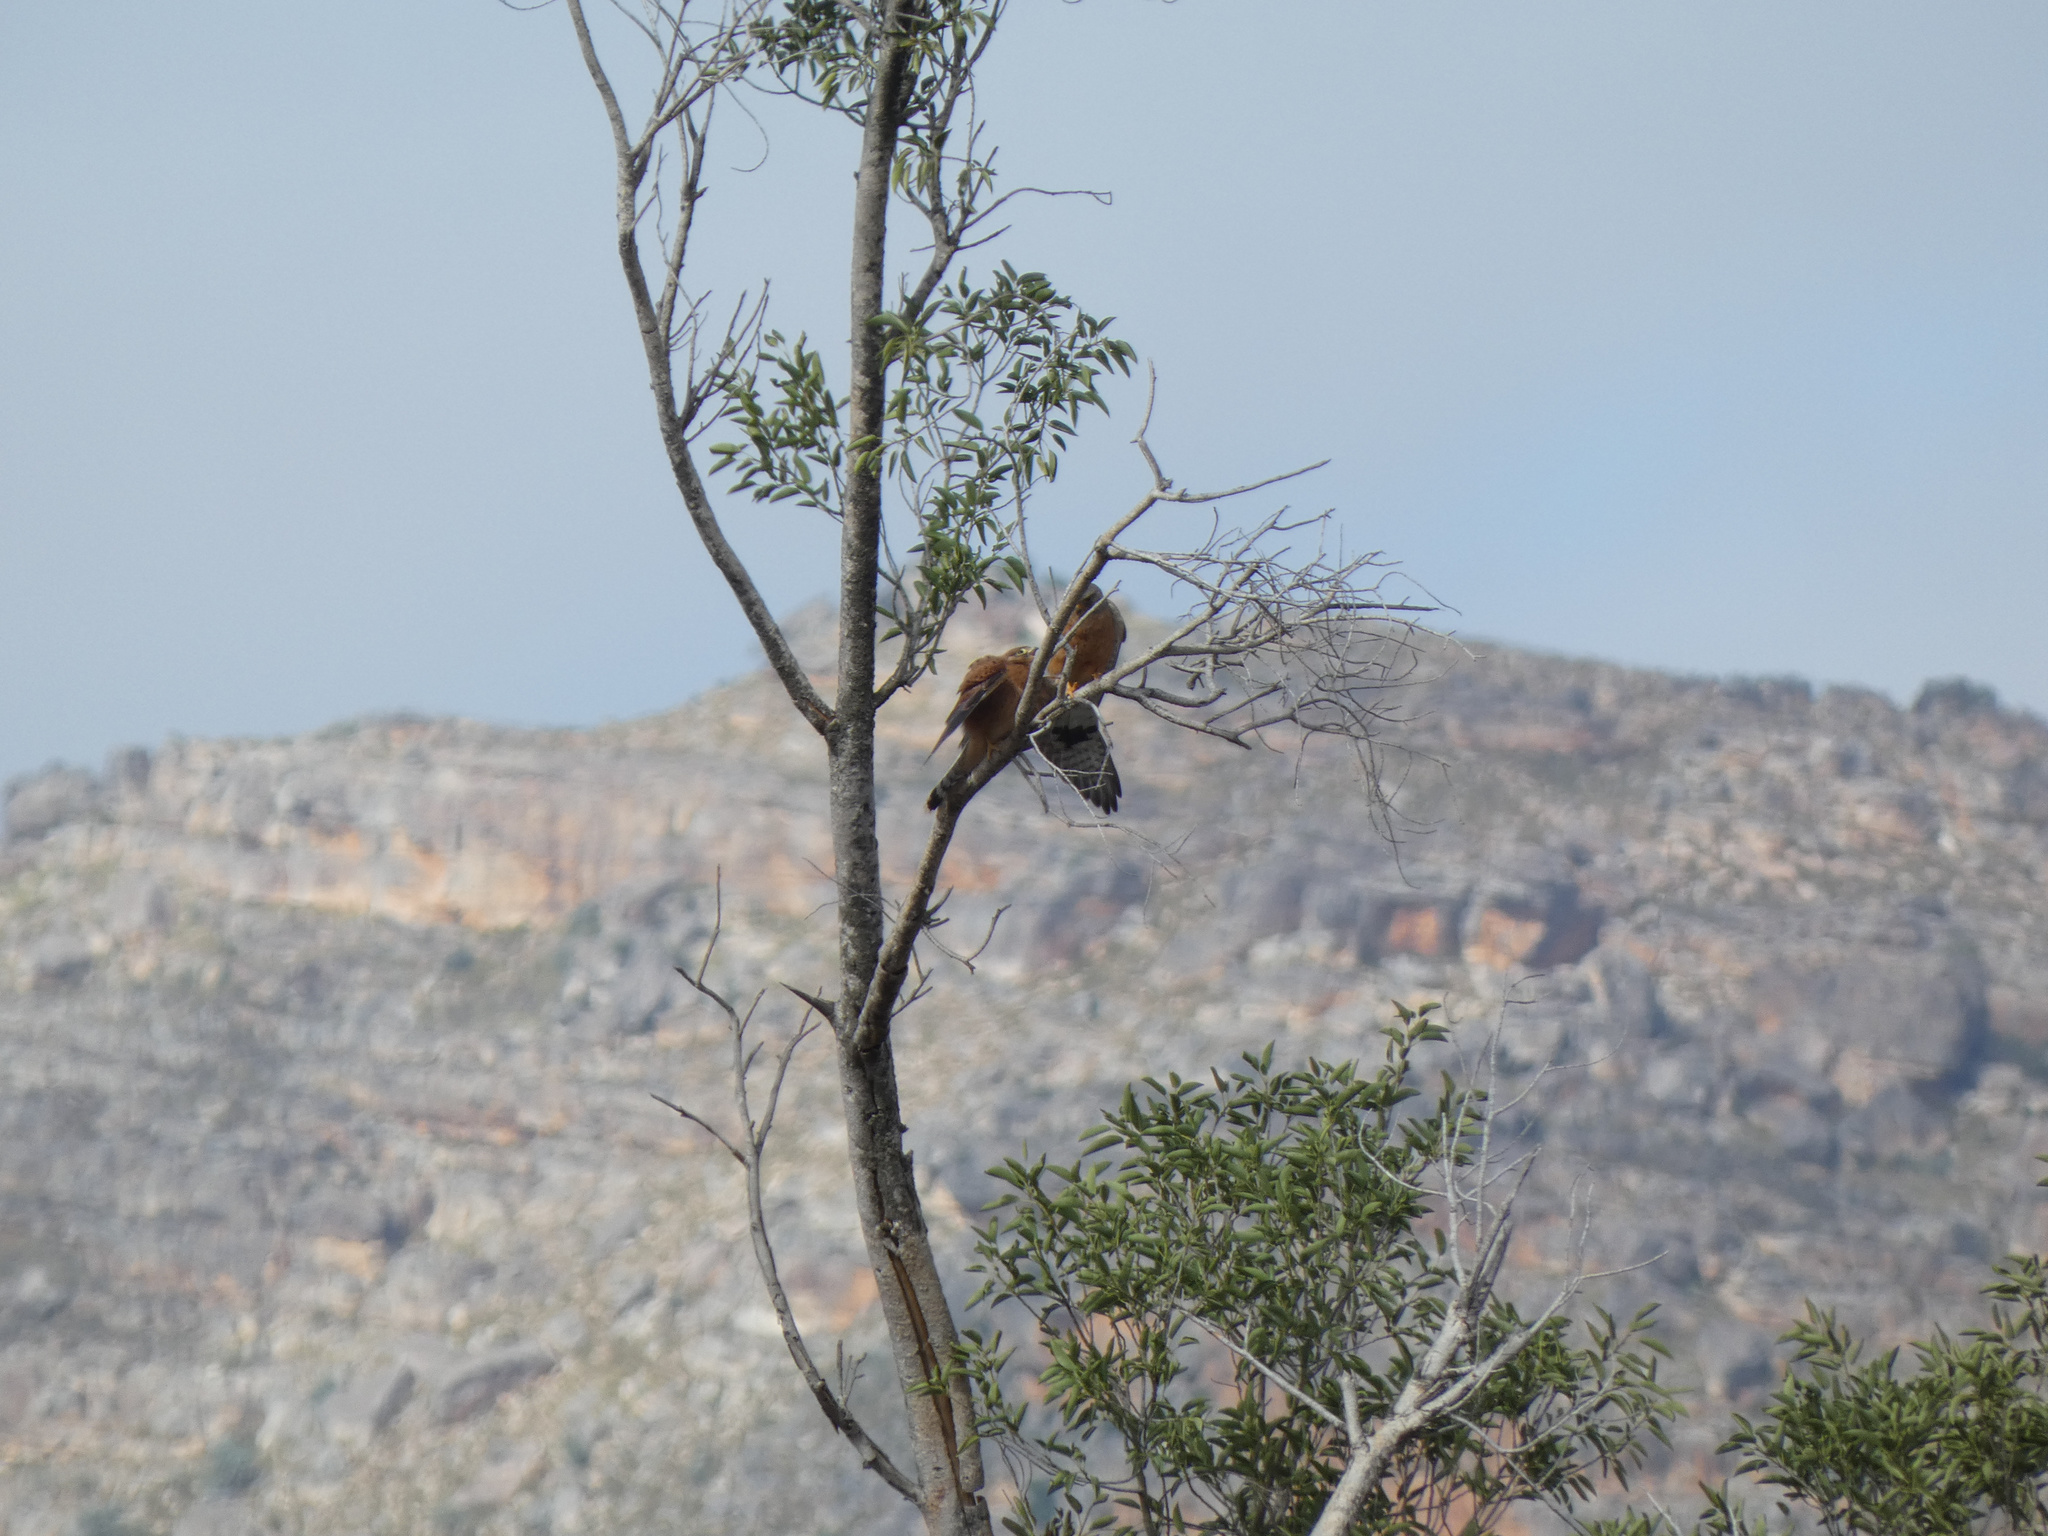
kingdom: Animalia
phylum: Chordata
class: Aves
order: Falconiformes
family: Falconidae
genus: Falco
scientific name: Falco rupicolus
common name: Rock kestrel
